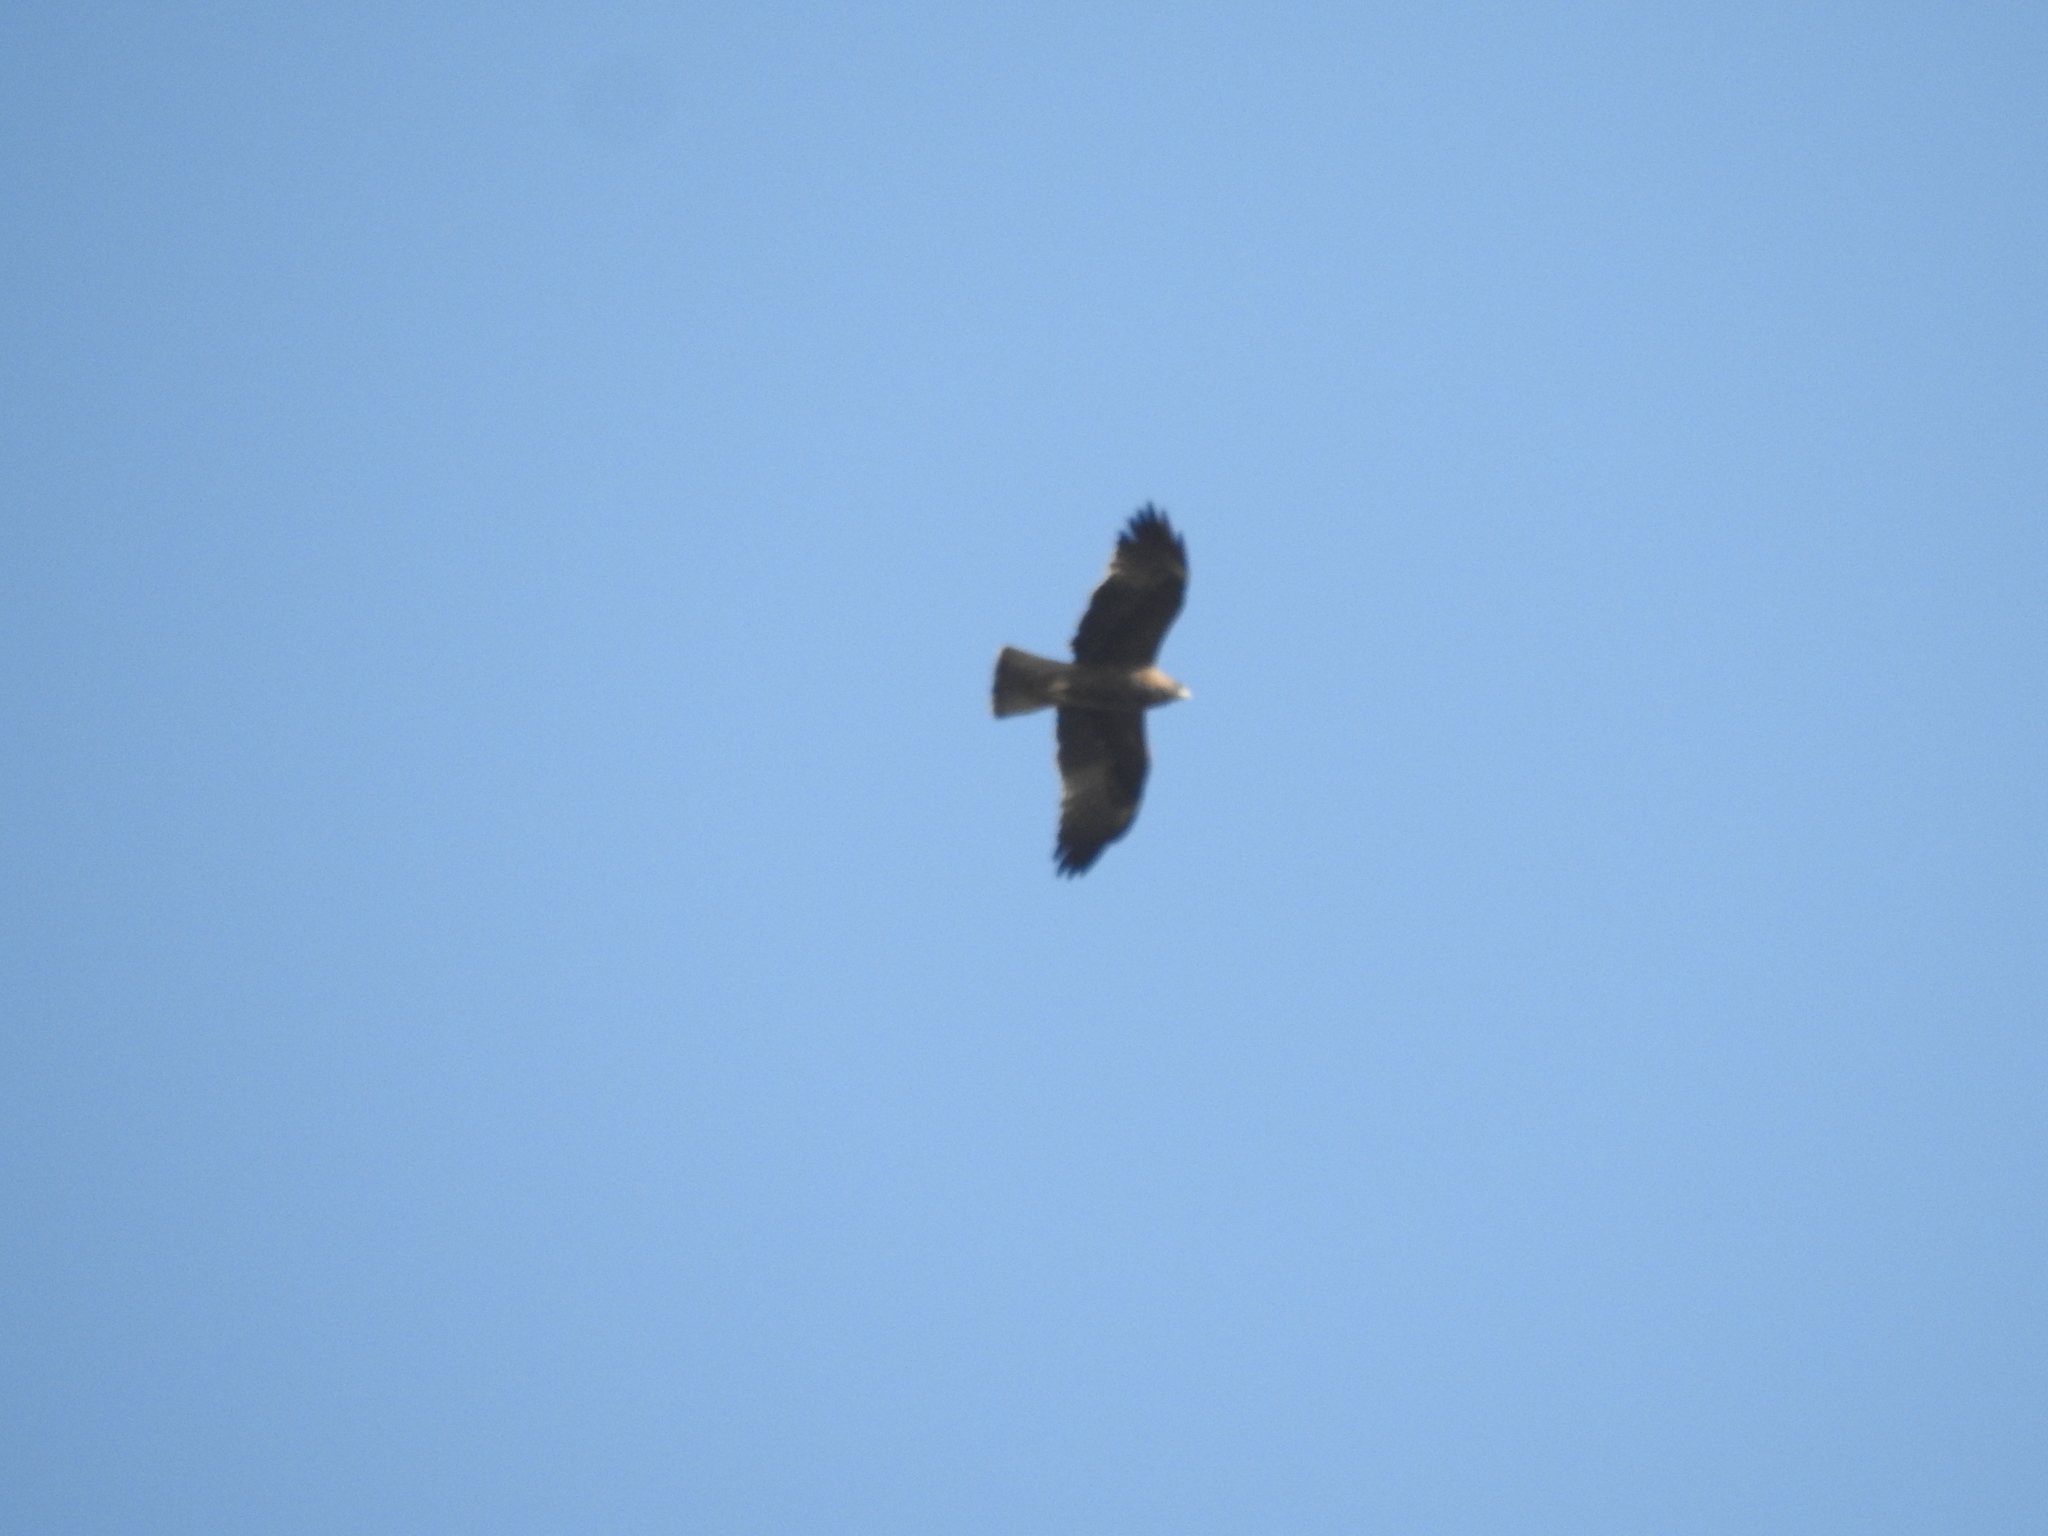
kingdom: Animalia
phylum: Chordata
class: Aves
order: Accipitriformes
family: Accipitridae
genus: Hieraaetus
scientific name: Hieraaetus pennatus
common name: Booted eagle
